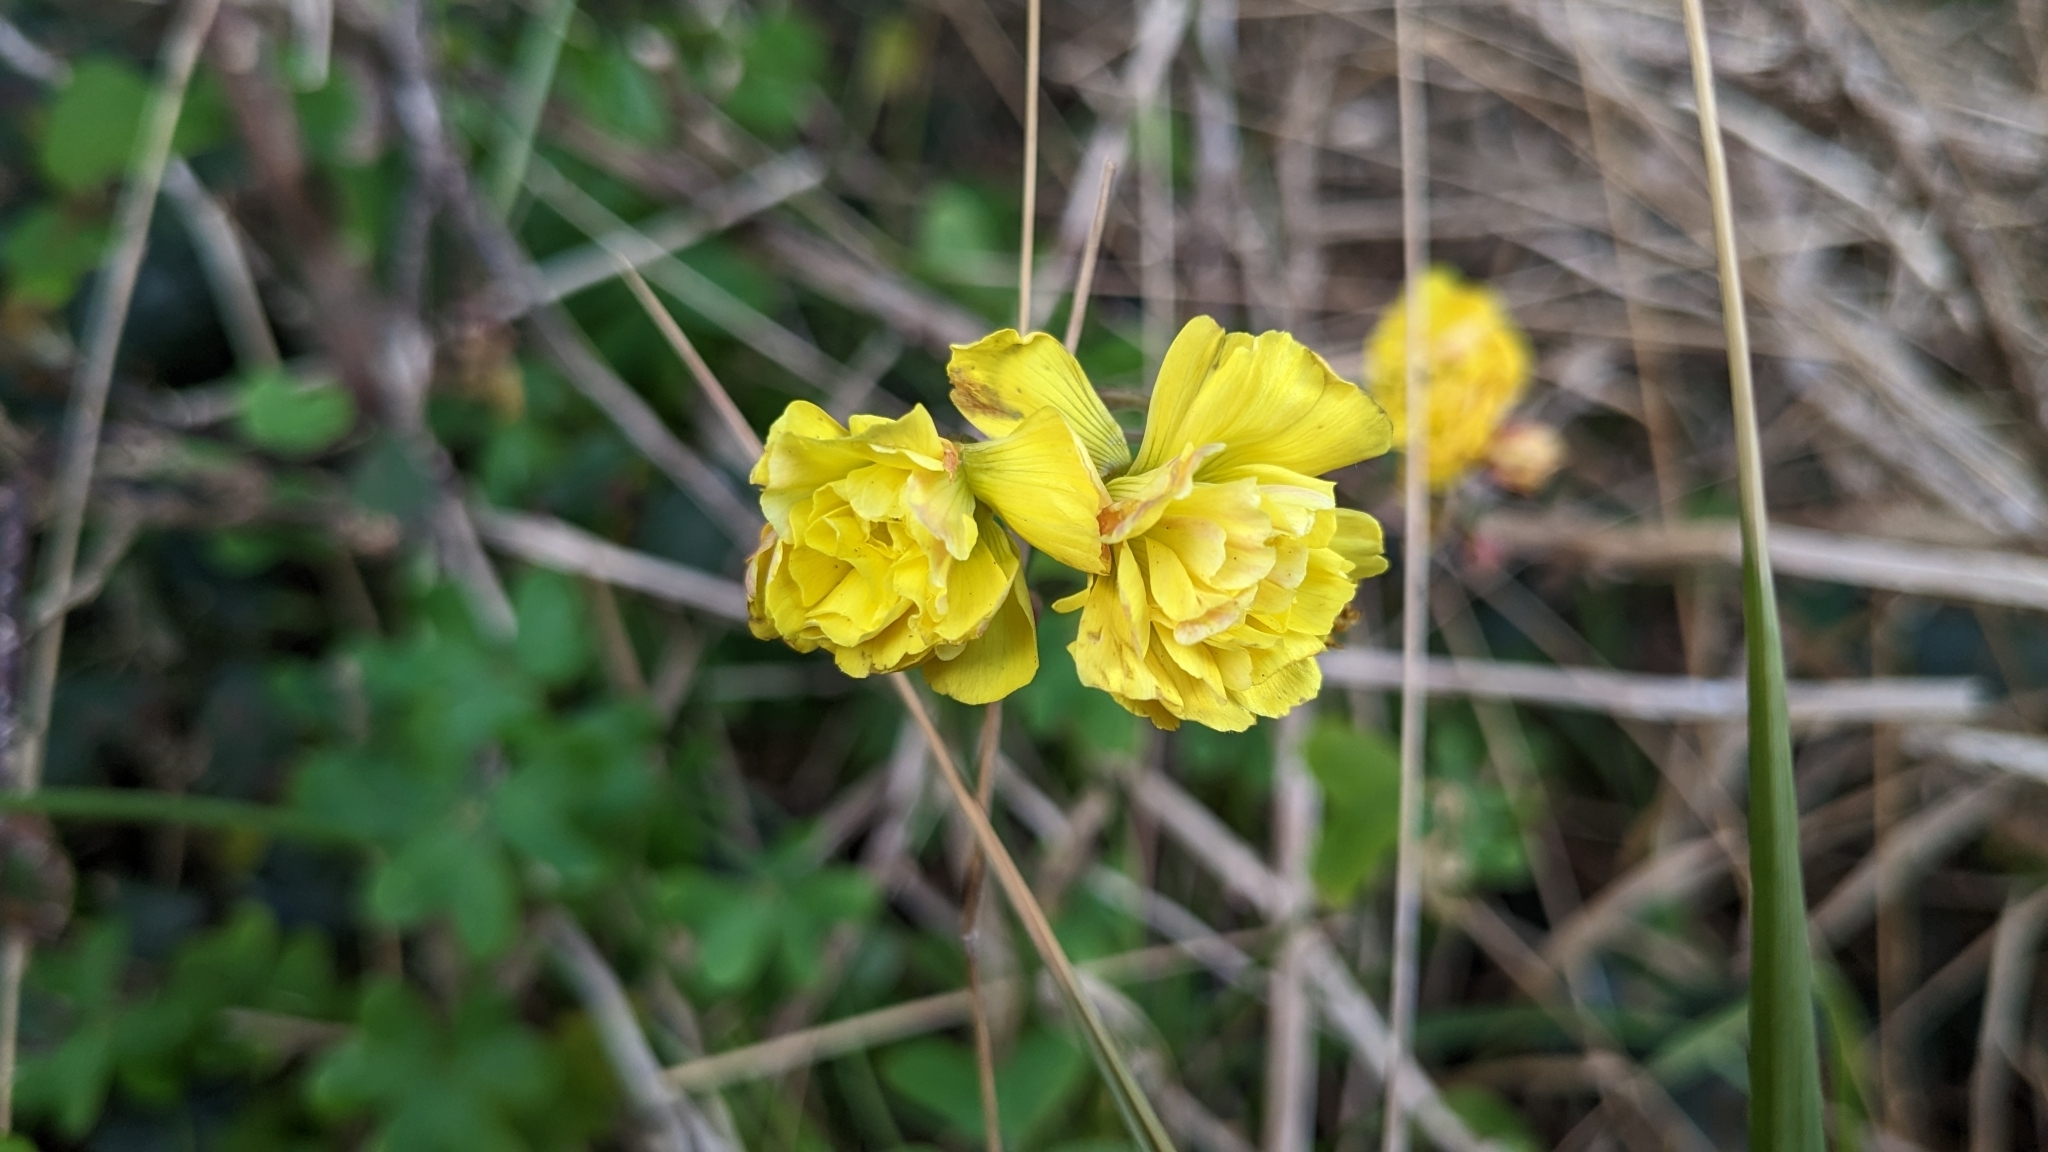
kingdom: Plantae
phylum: Tracheophyta
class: Magnoliopsida
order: Oxalidales
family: Oxalidaceae
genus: Oxalis
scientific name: Oxalis pes-caprae
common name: Bermuda-buttercup
